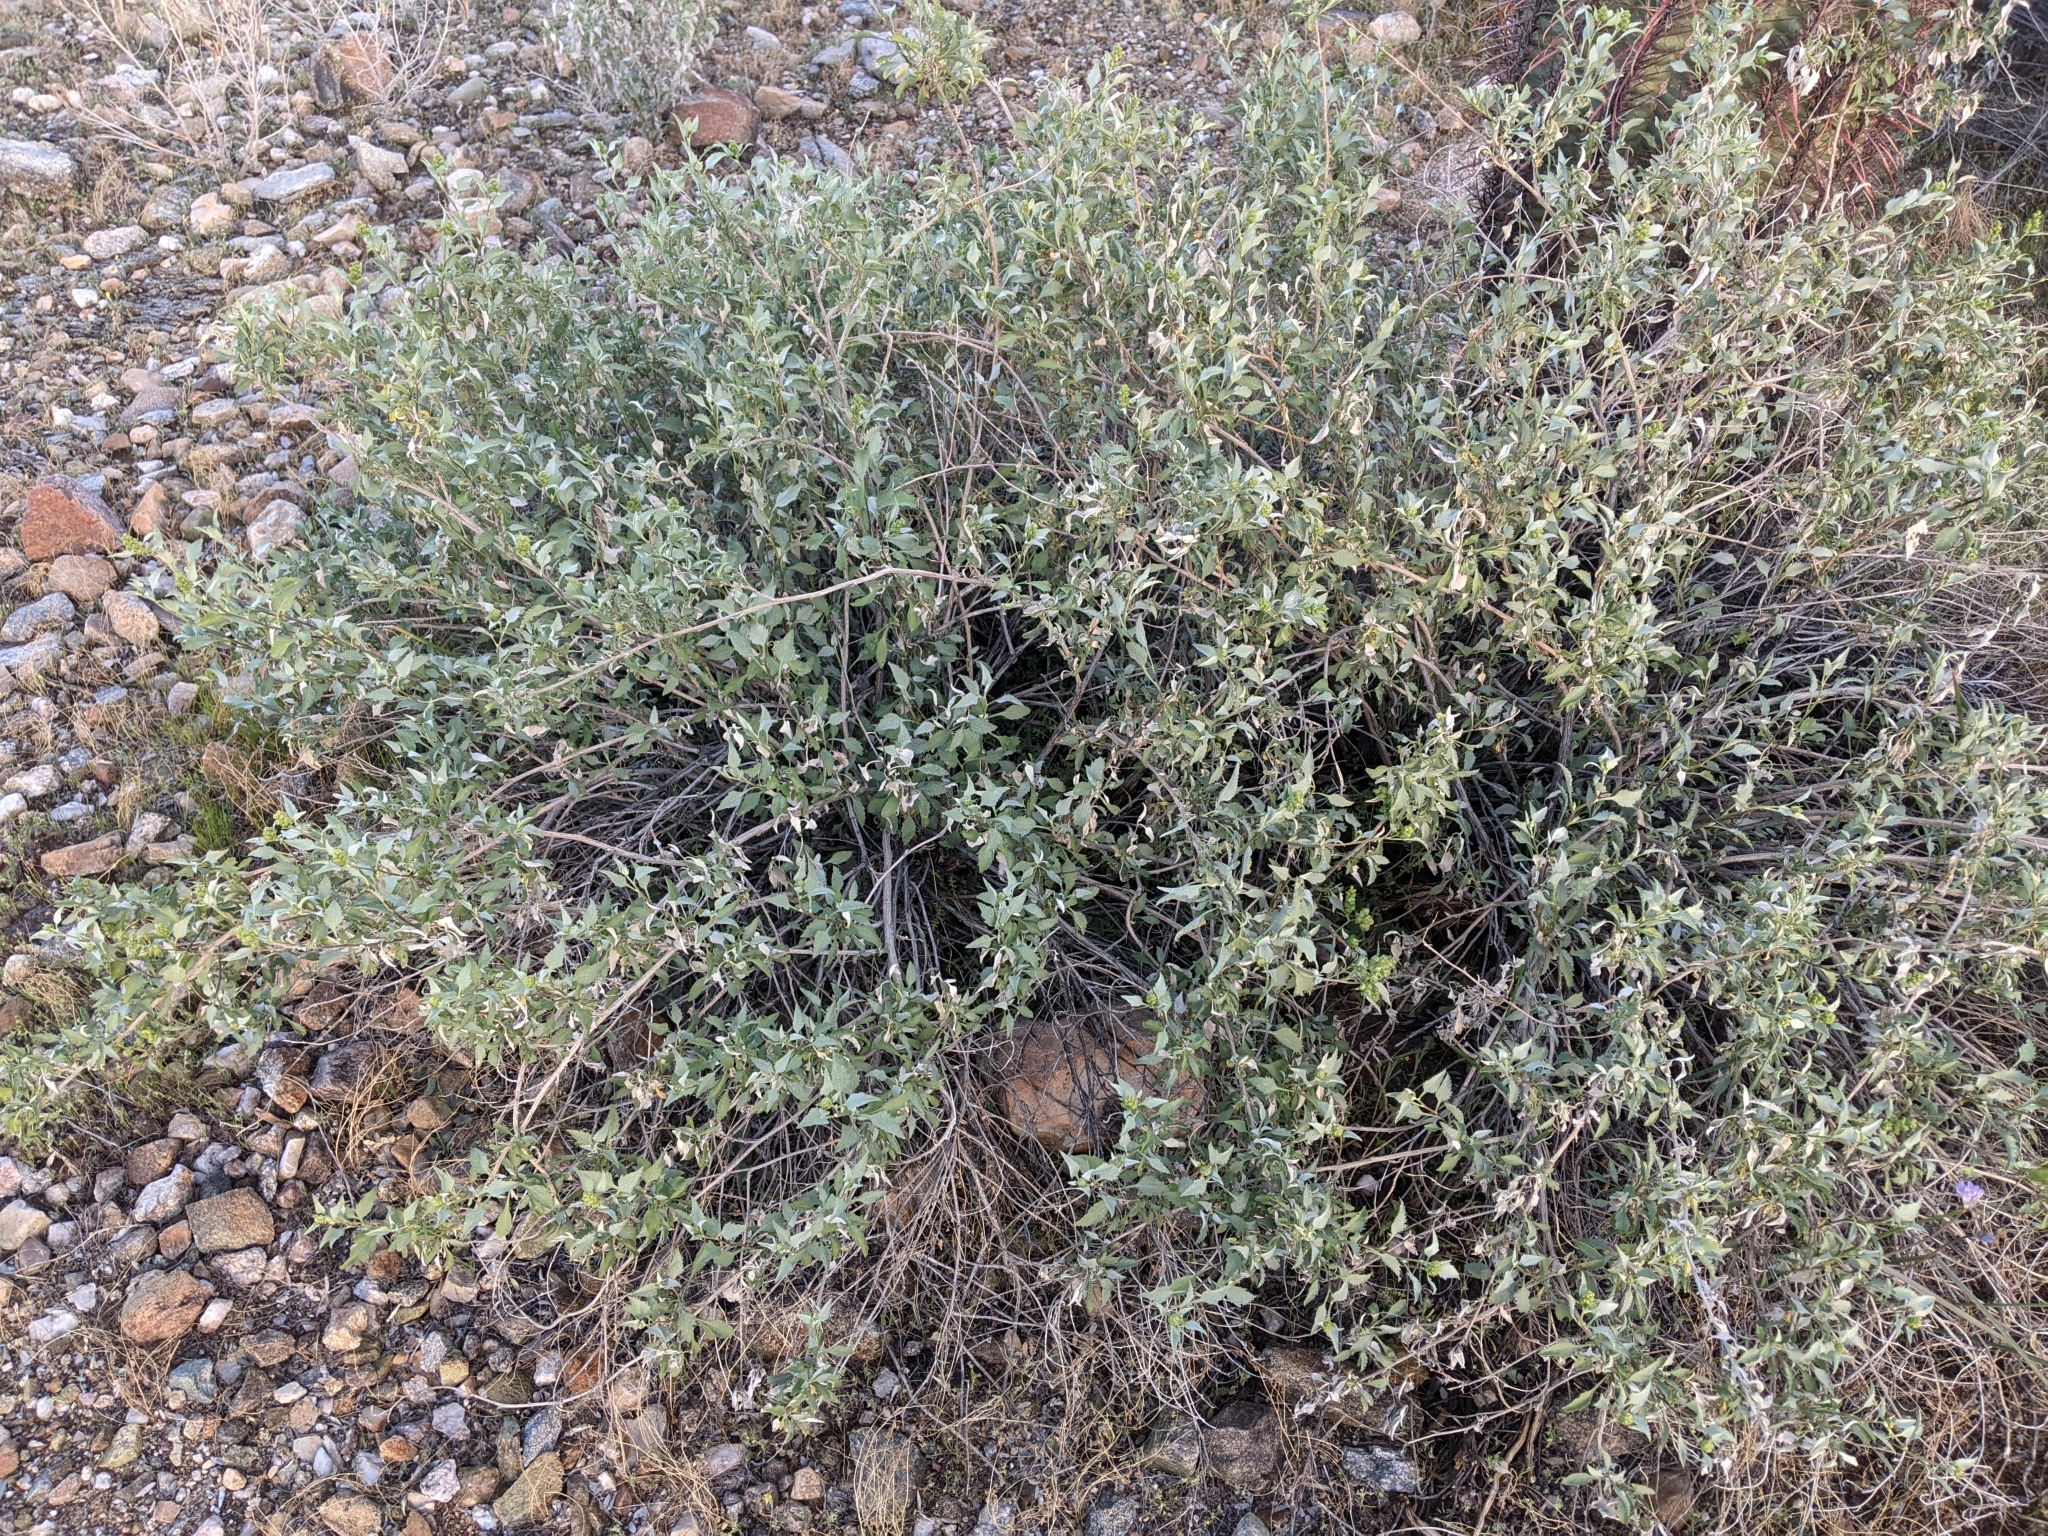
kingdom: Plantae
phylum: Tracheophyta
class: Magnoliopsida
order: Asterales
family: Asteraceae
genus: Ambrosia
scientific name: Ambrosia deltoidea
